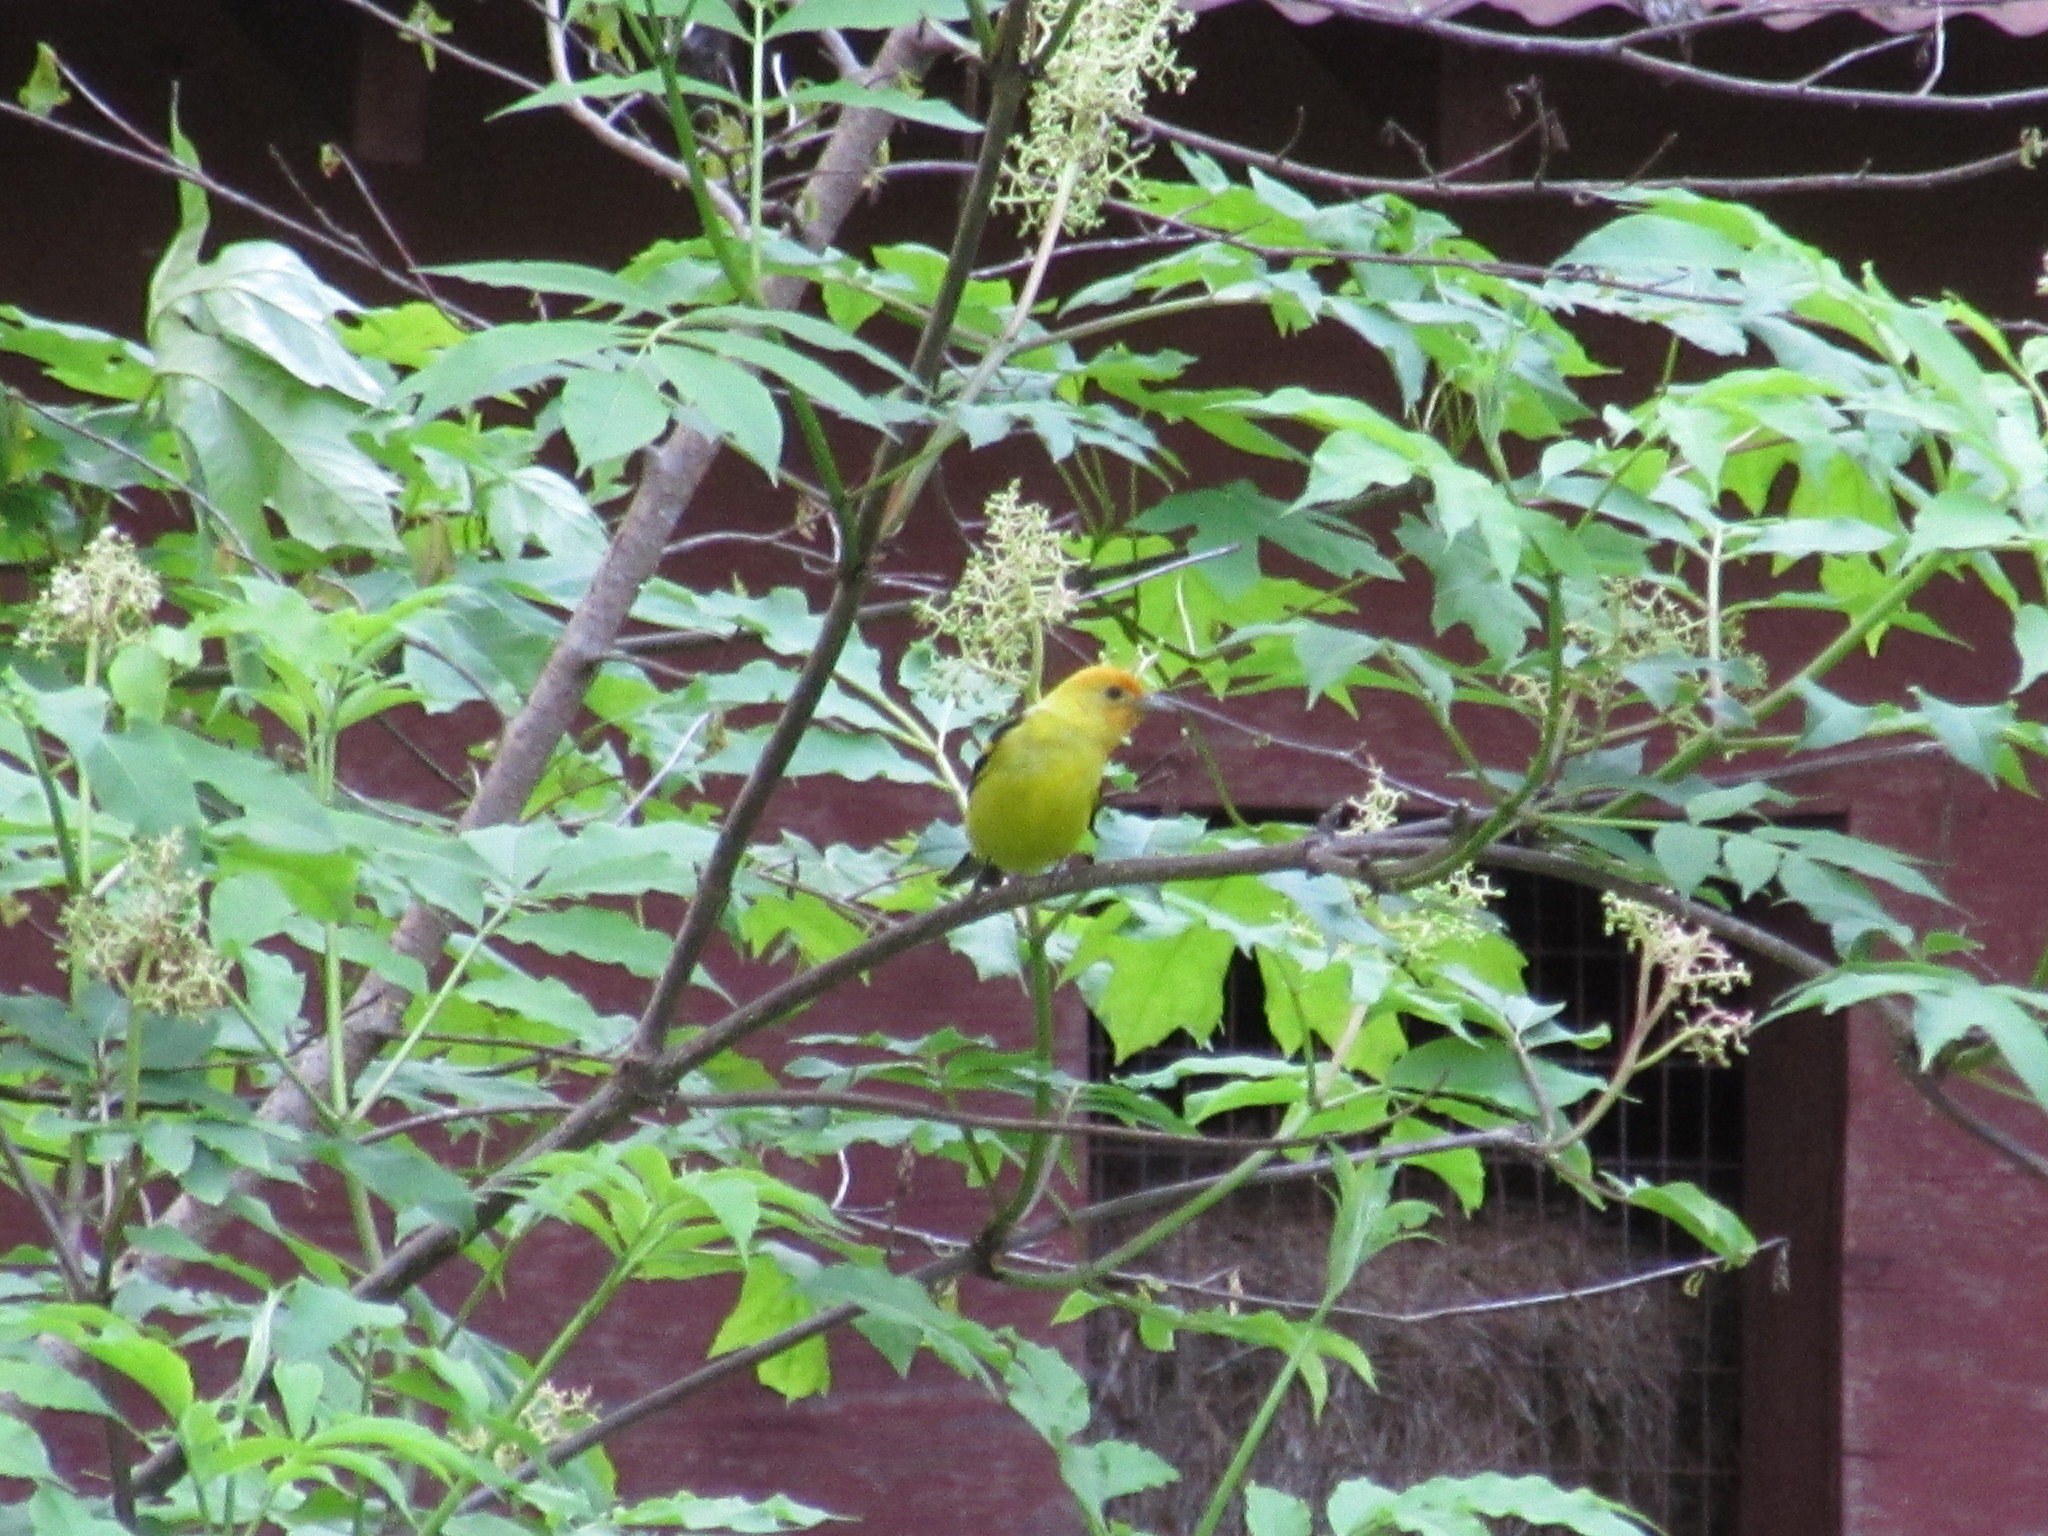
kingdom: Animalia
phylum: Chordata
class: Aves
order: Passeriformes
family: Cardinalidae
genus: Piranga
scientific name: Piranga ludoviciana
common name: Western tanager
